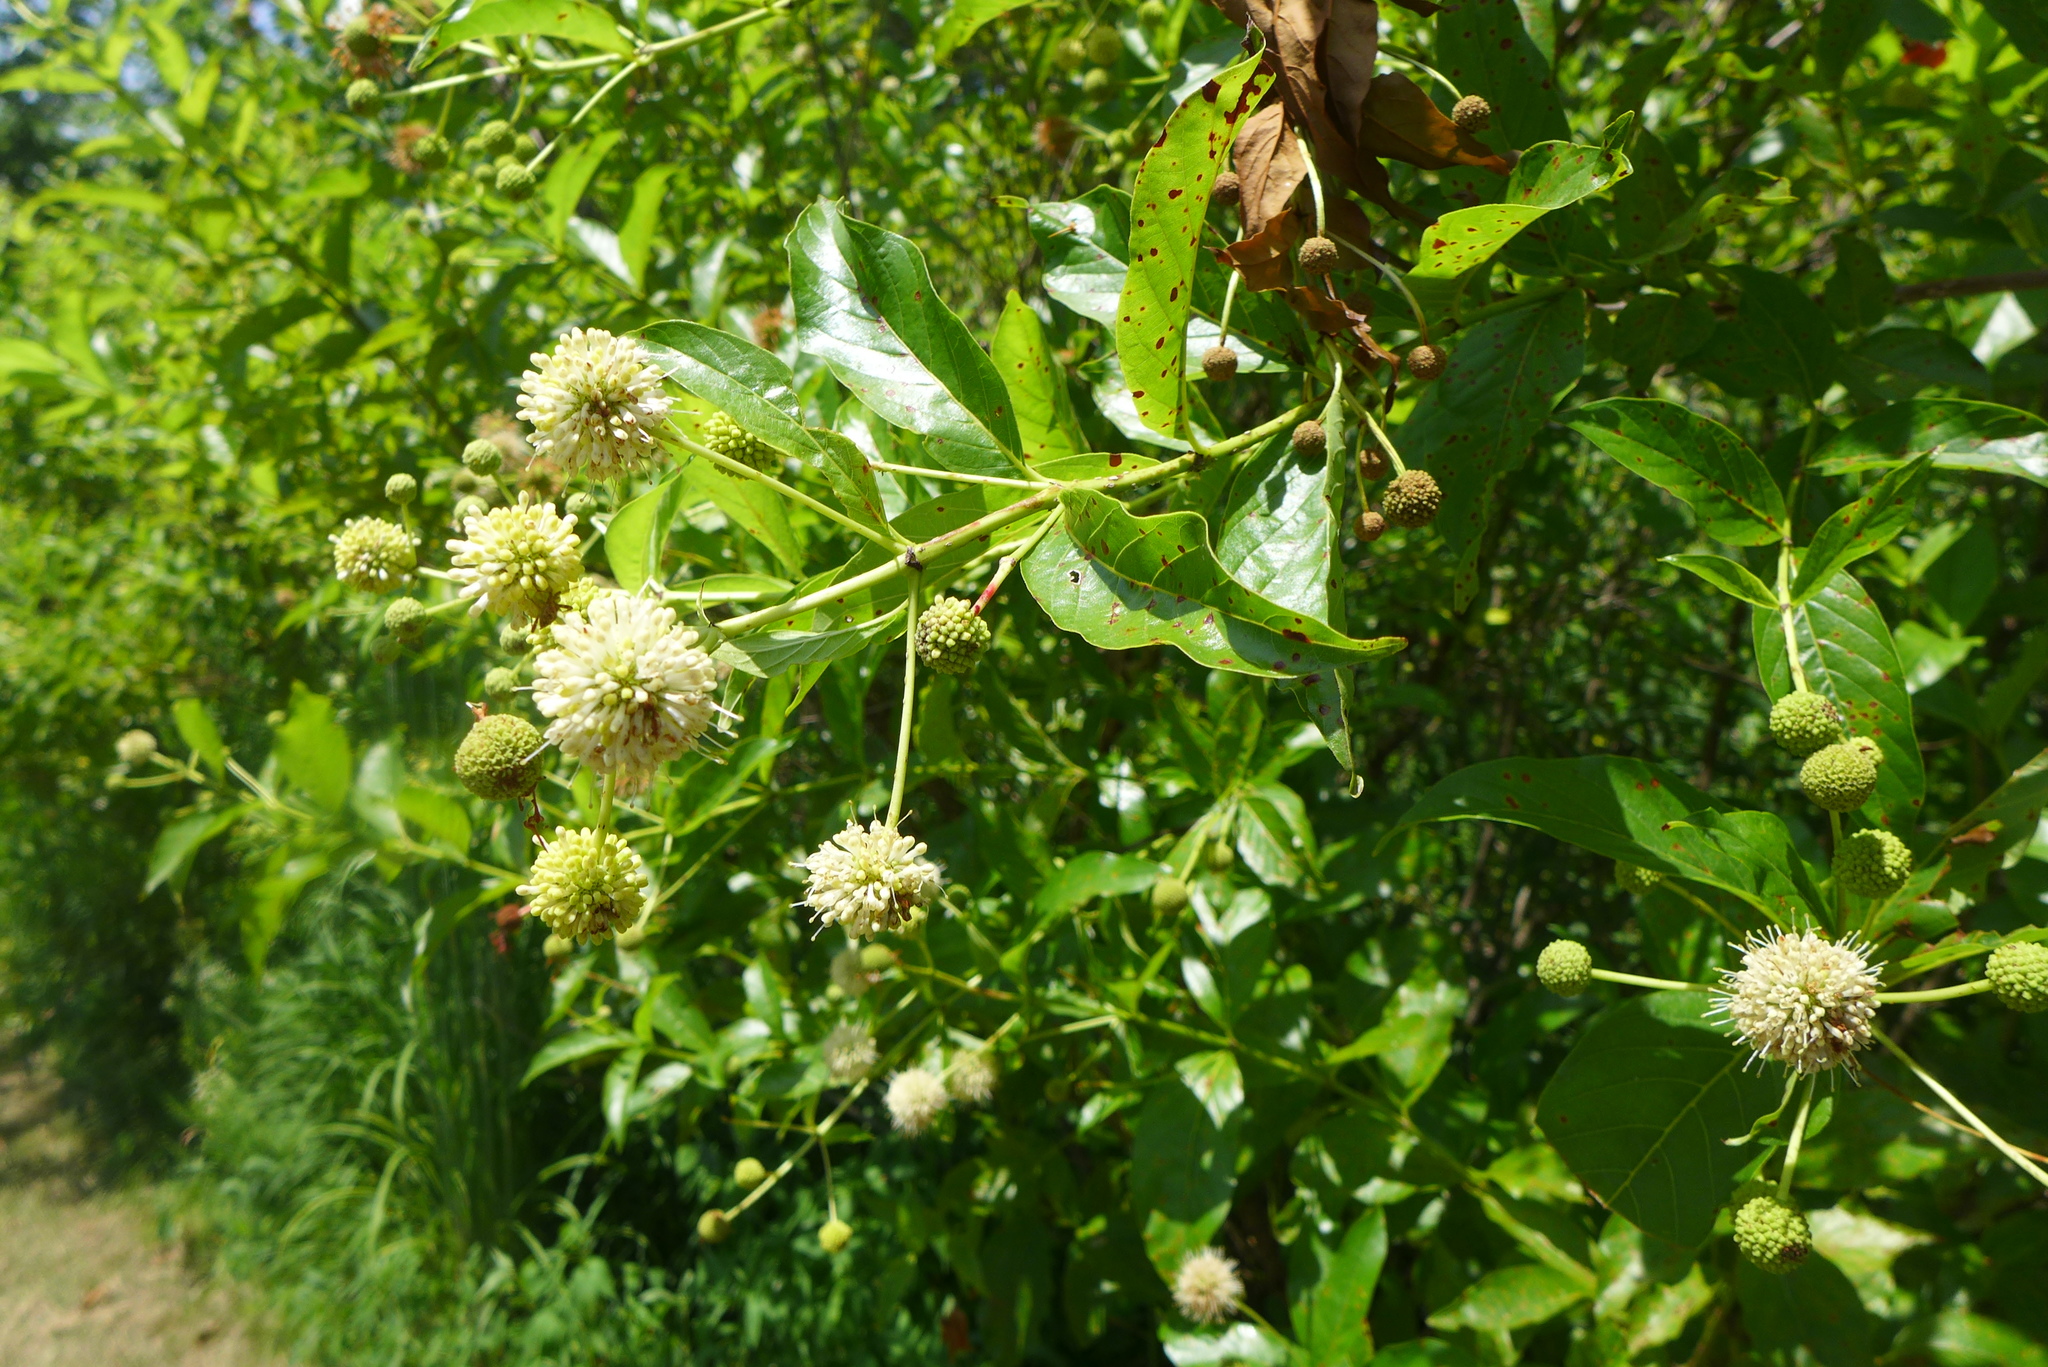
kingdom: Plantae
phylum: Tracheophyta
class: Magnoliopsida
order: Gentianales
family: Rubiaceae
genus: Cephalanthus
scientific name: Cephalanthus occidentalis
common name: Button-willow
